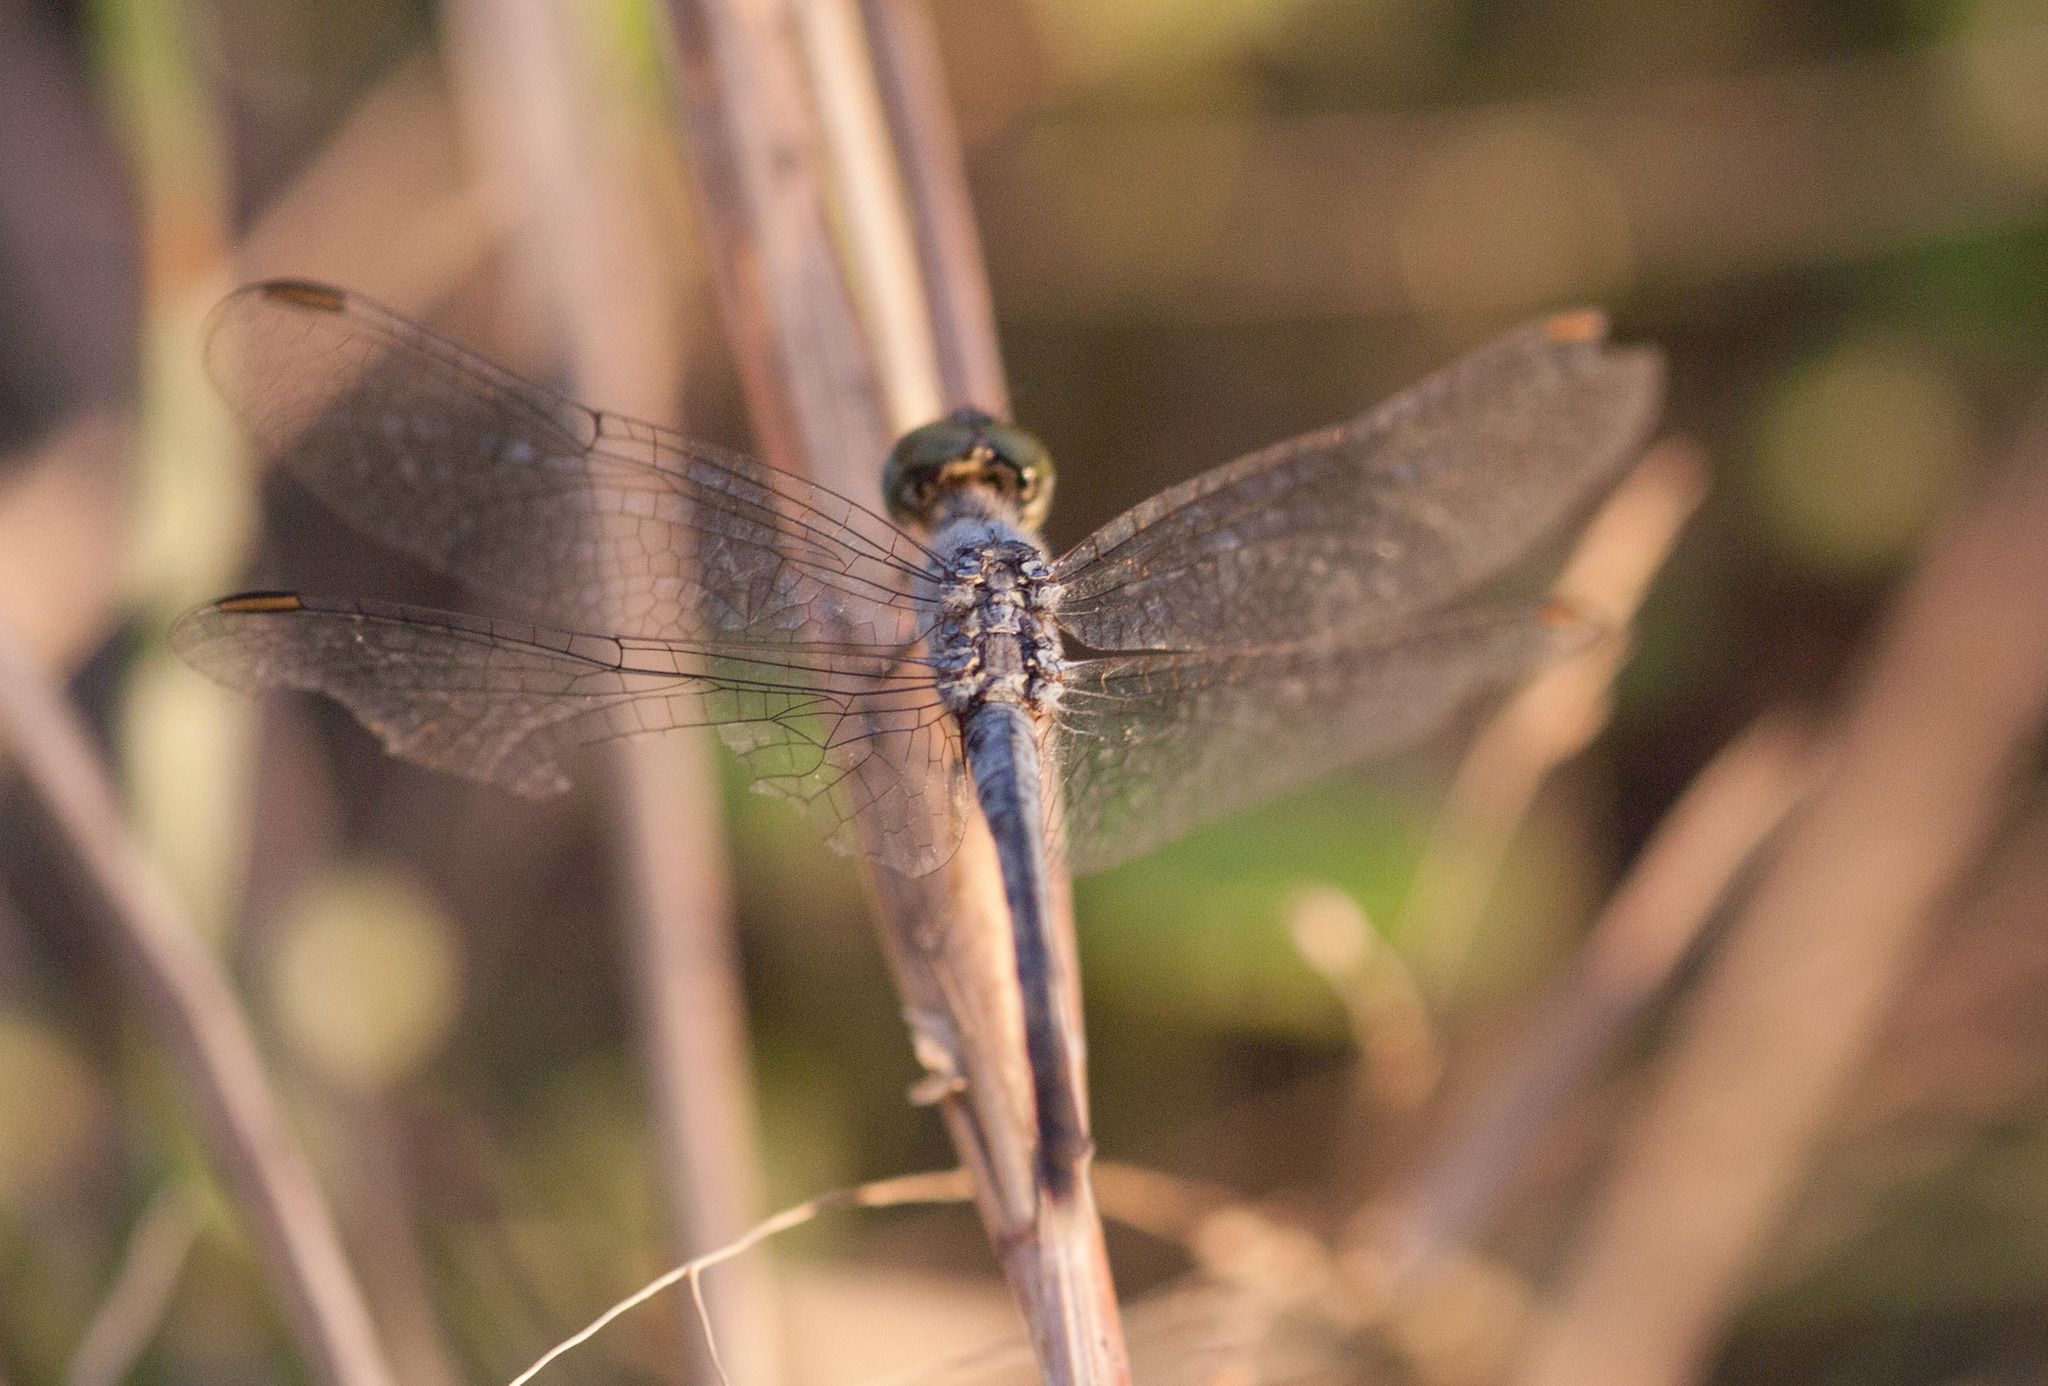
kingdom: Animalia
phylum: Arthropoda
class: Insecta
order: Odonata
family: Libellulidae
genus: Diplacodes
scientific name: Diplacodes trivialis
